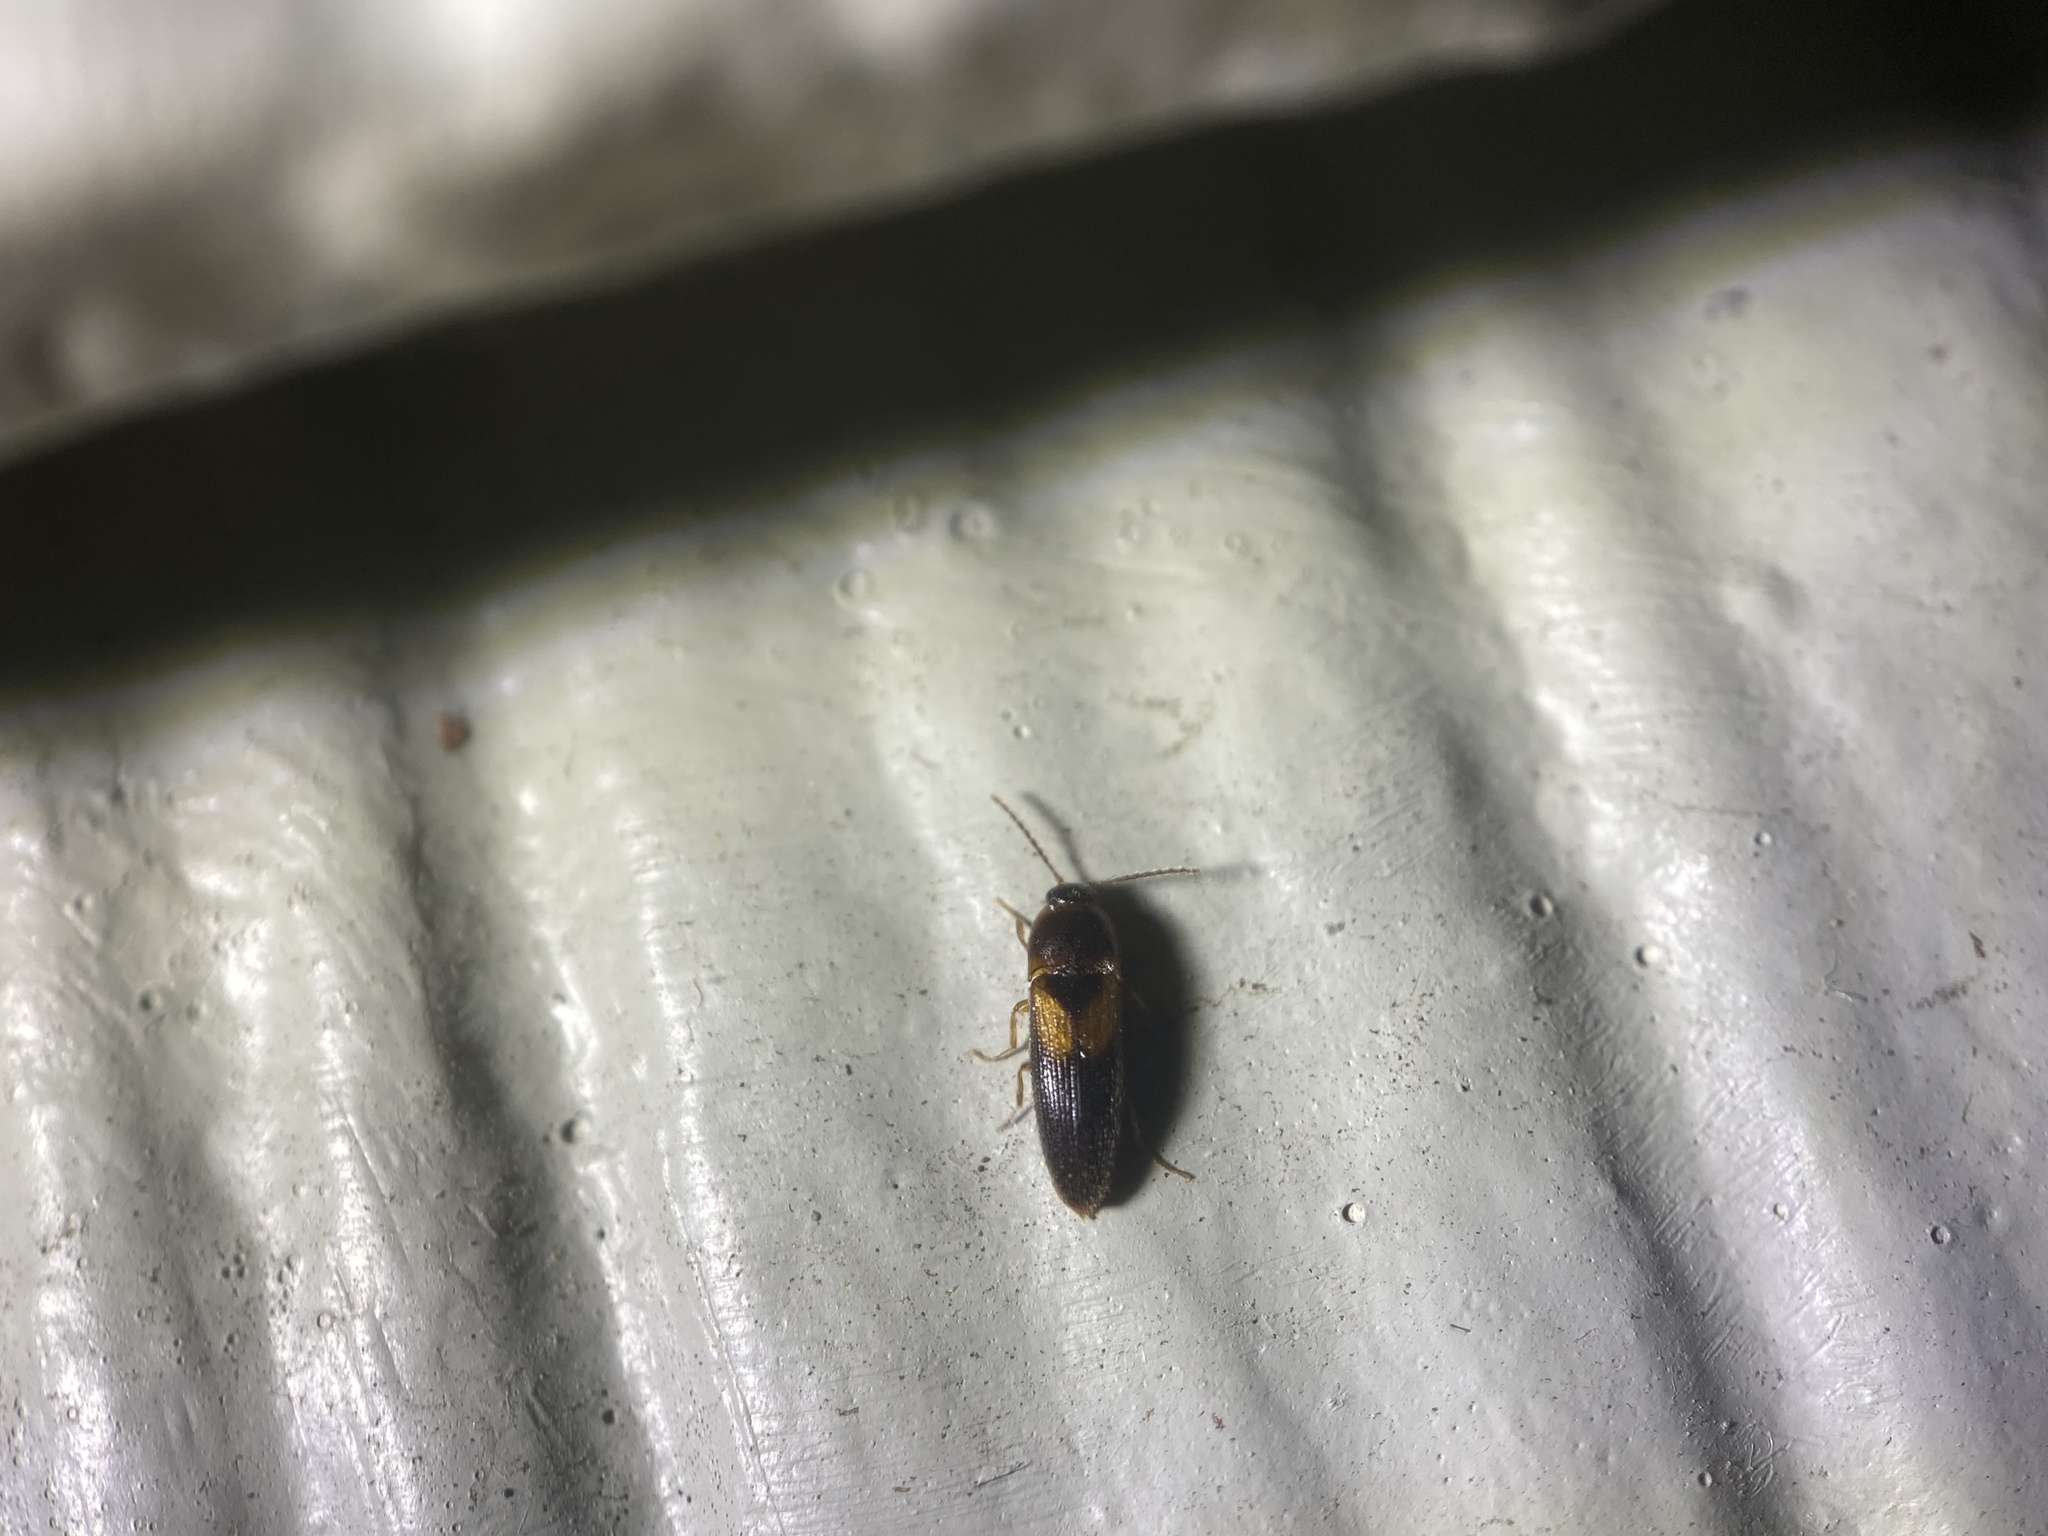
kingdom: Animalia
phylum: Arthropoda
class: Insecta
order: Coleoptera
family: Elateridae
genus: Ampedus
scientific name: Ampedus areolatus
